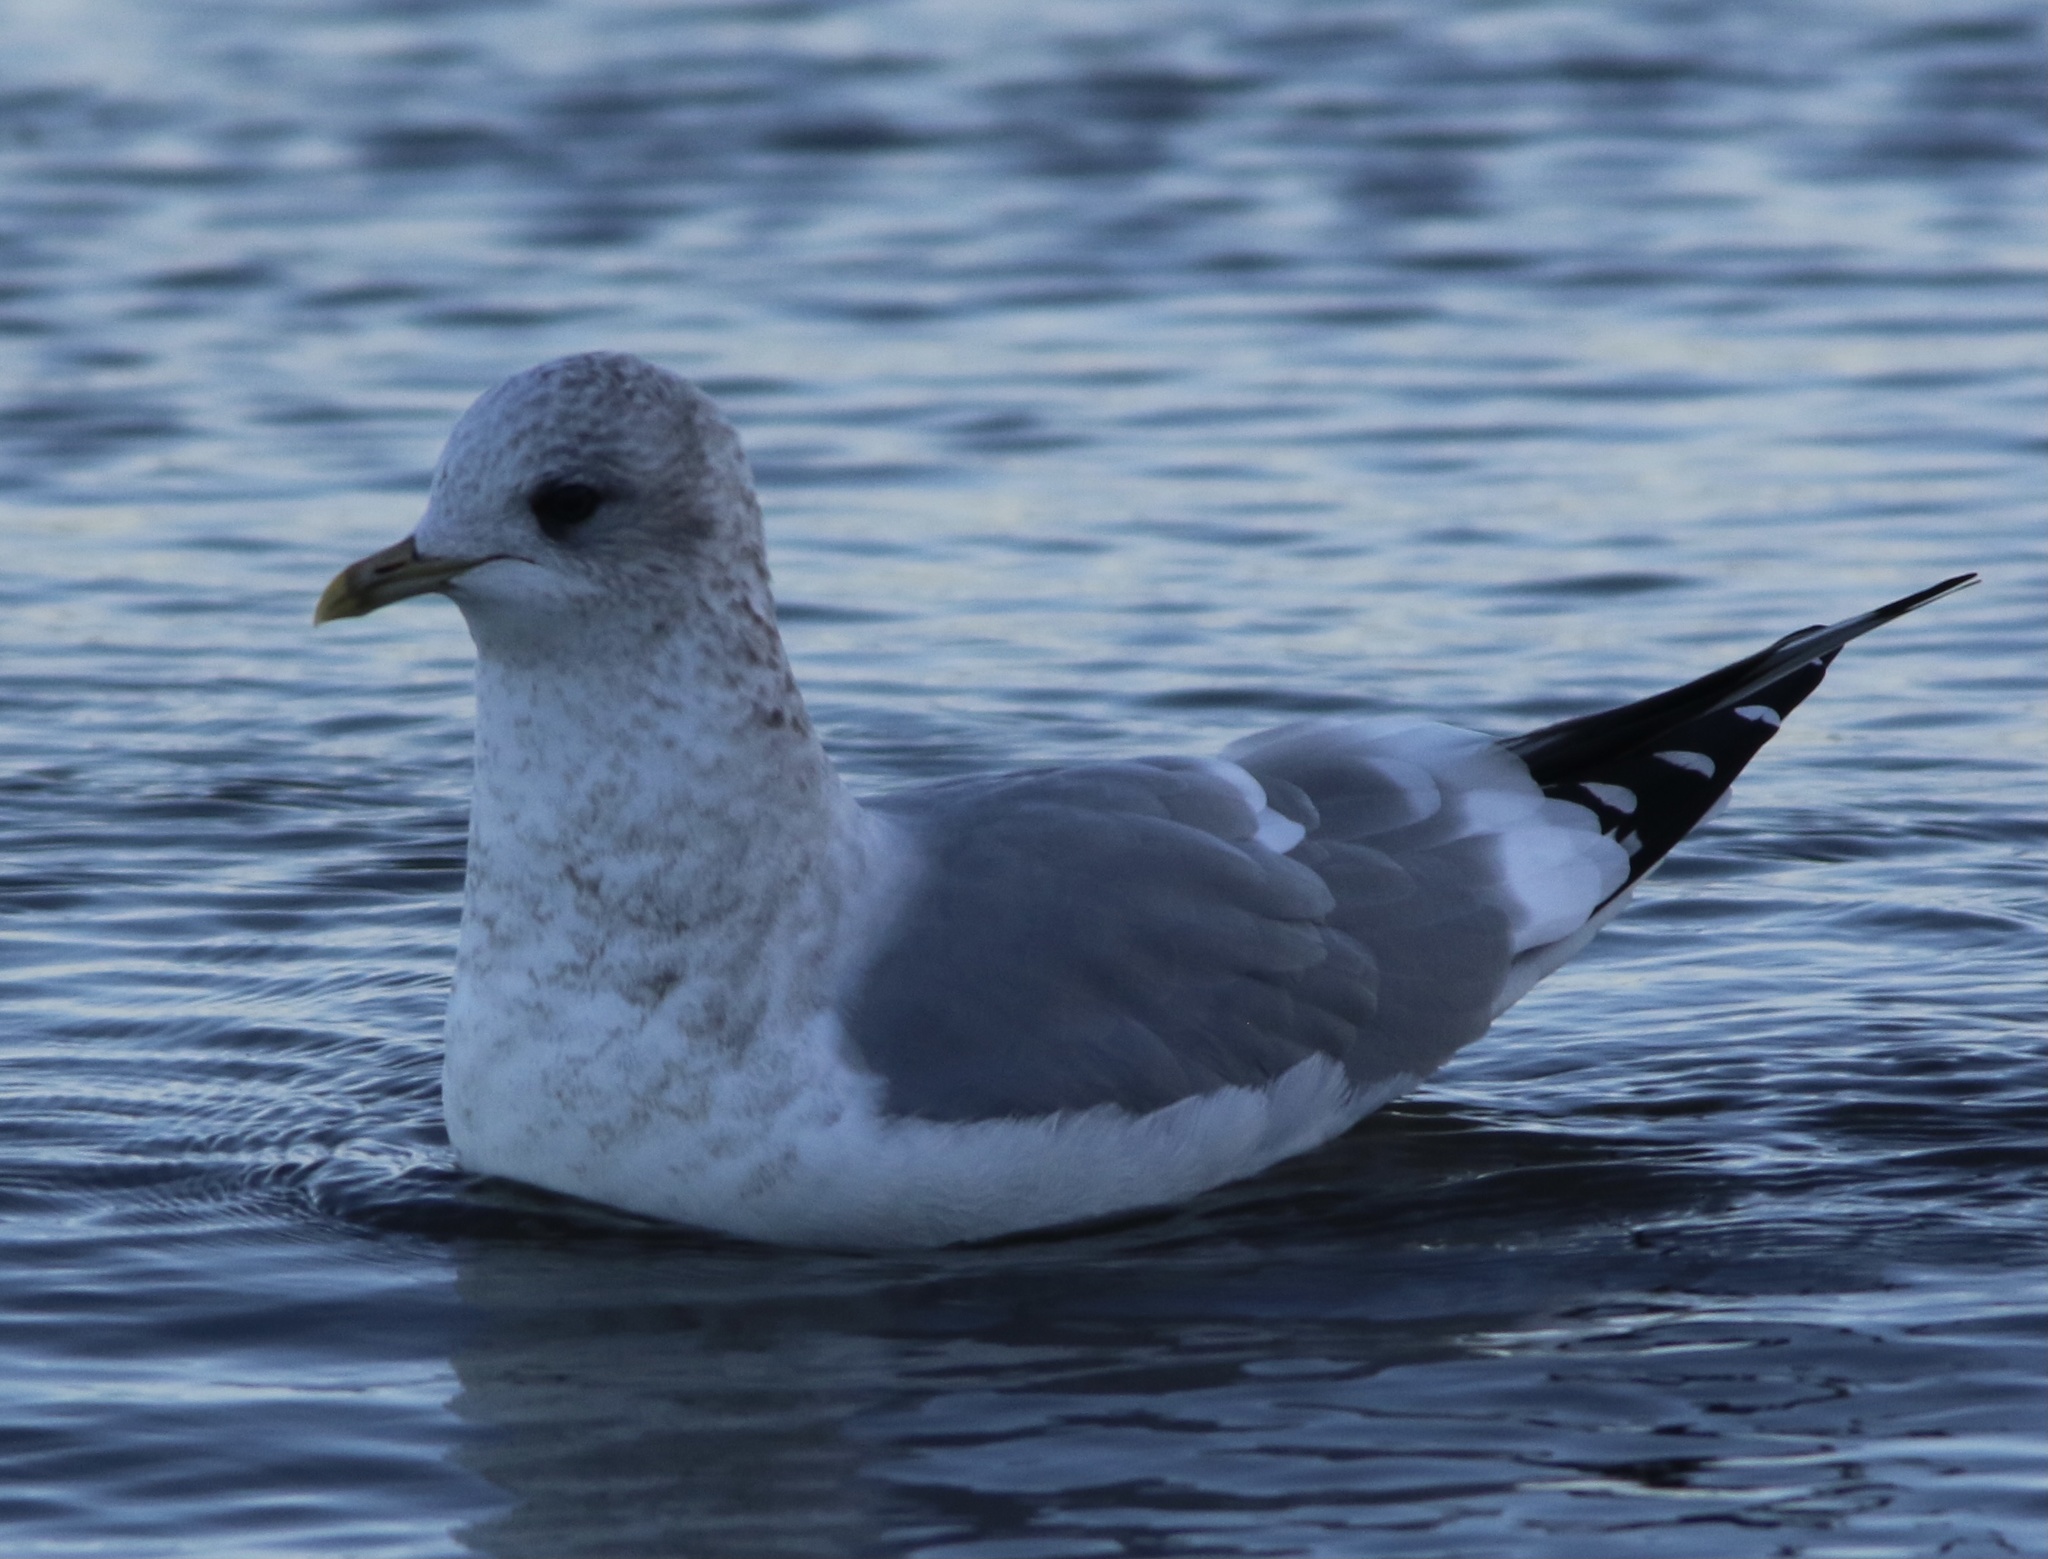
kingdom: Animalia
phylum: Chordata
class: Aves
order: Charadriiformes
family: Laridae
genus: Larus
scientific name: Larus brachyrhynchus
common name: Short-billed gull
